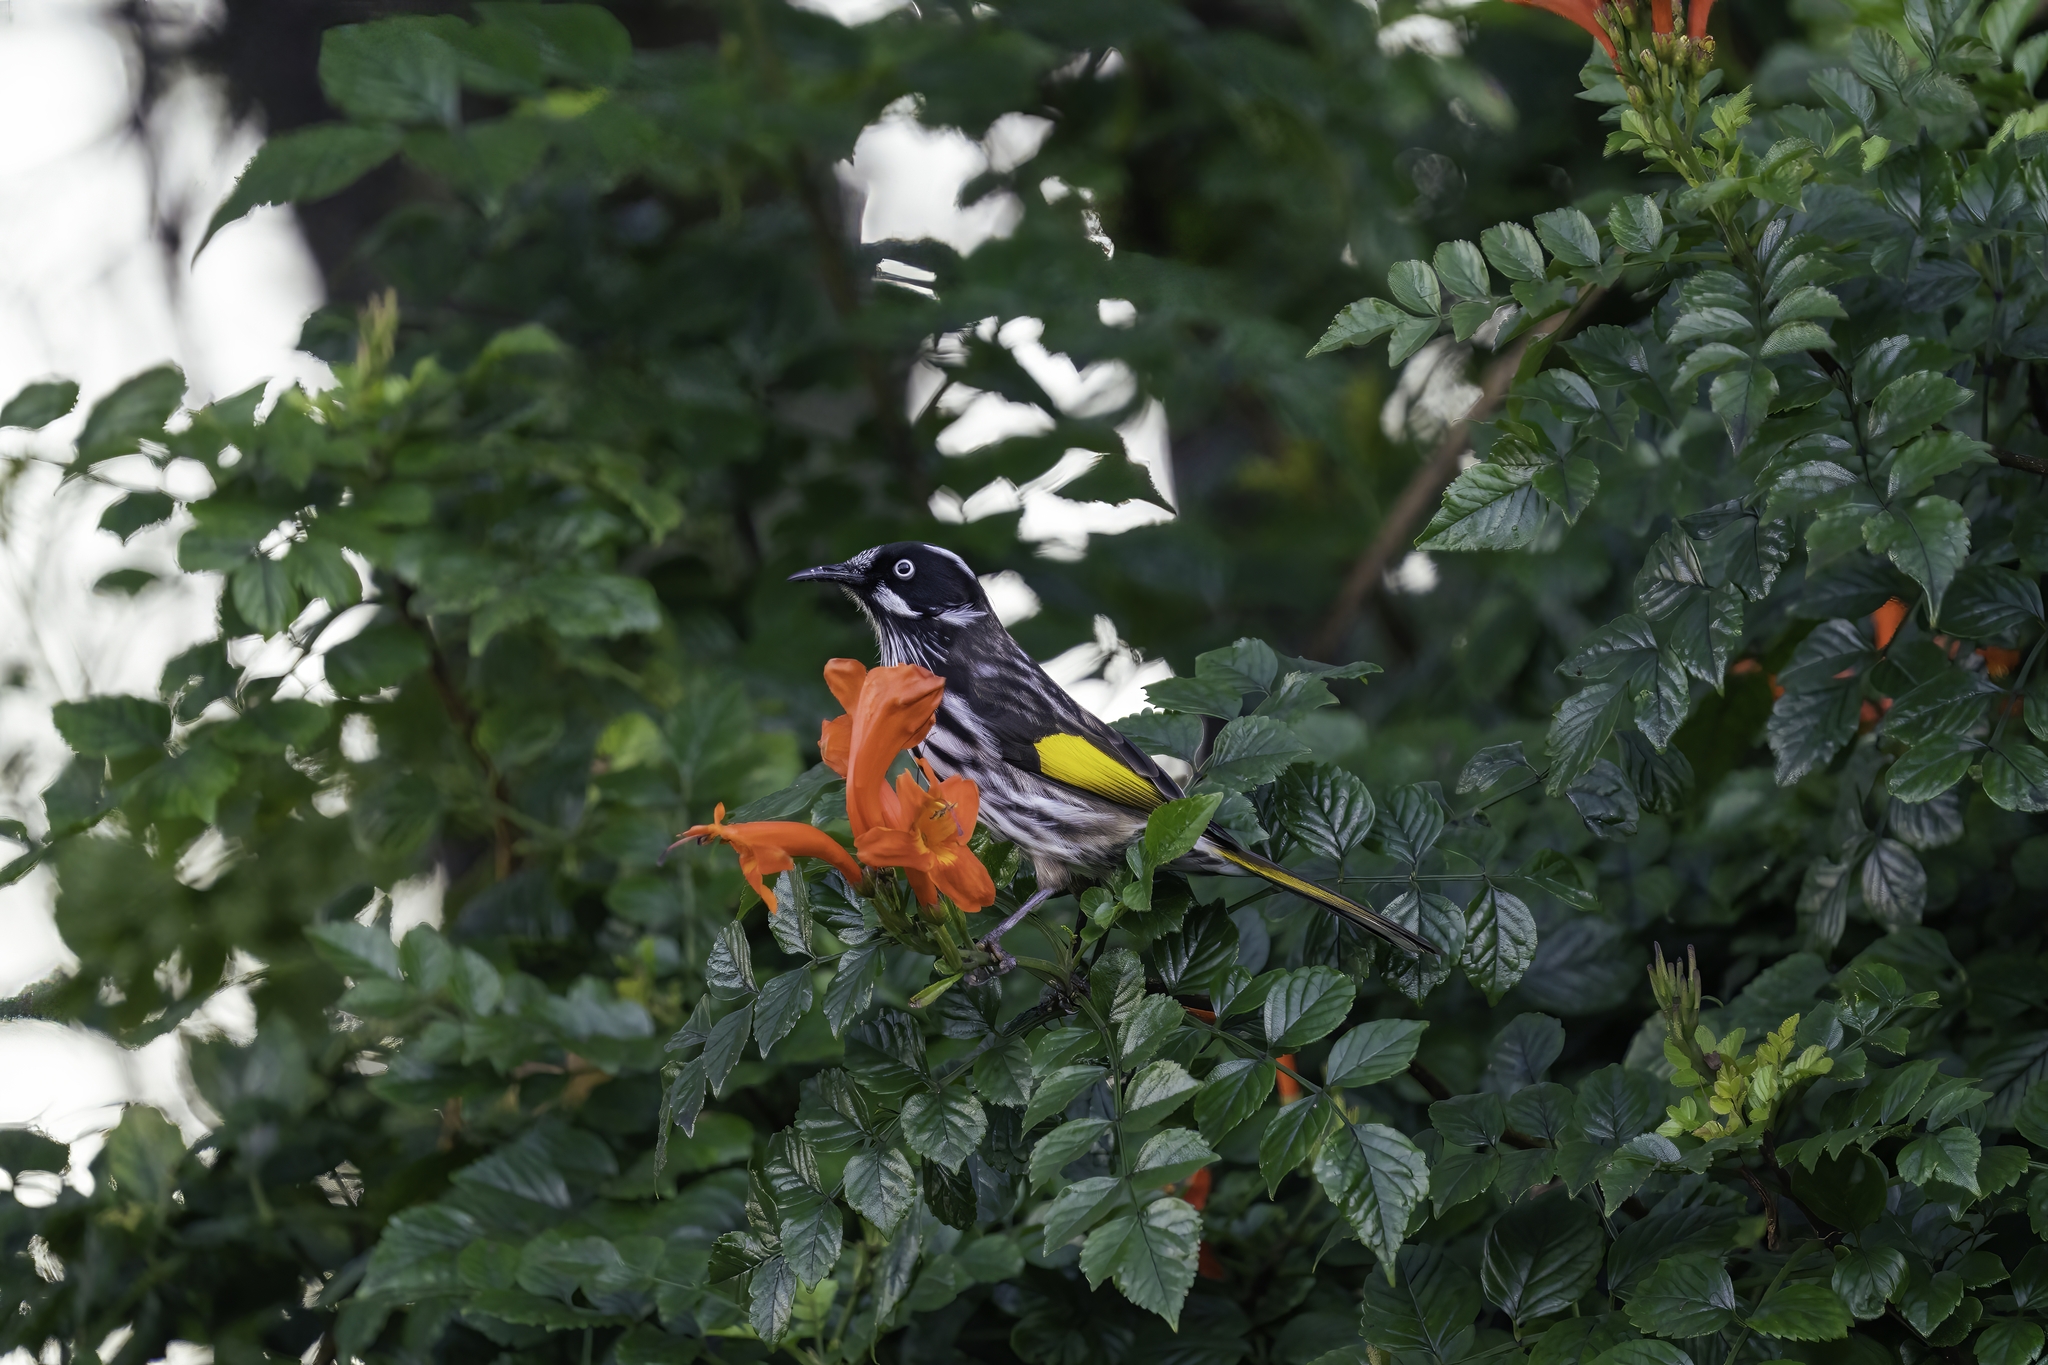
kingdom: Animalia
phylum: Chordata
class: Aves
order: Passeriformes
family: Meliphagidae
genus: Phylidonyris
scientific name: Phylidonyris novaehollandiae
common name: New holland honeyeater
